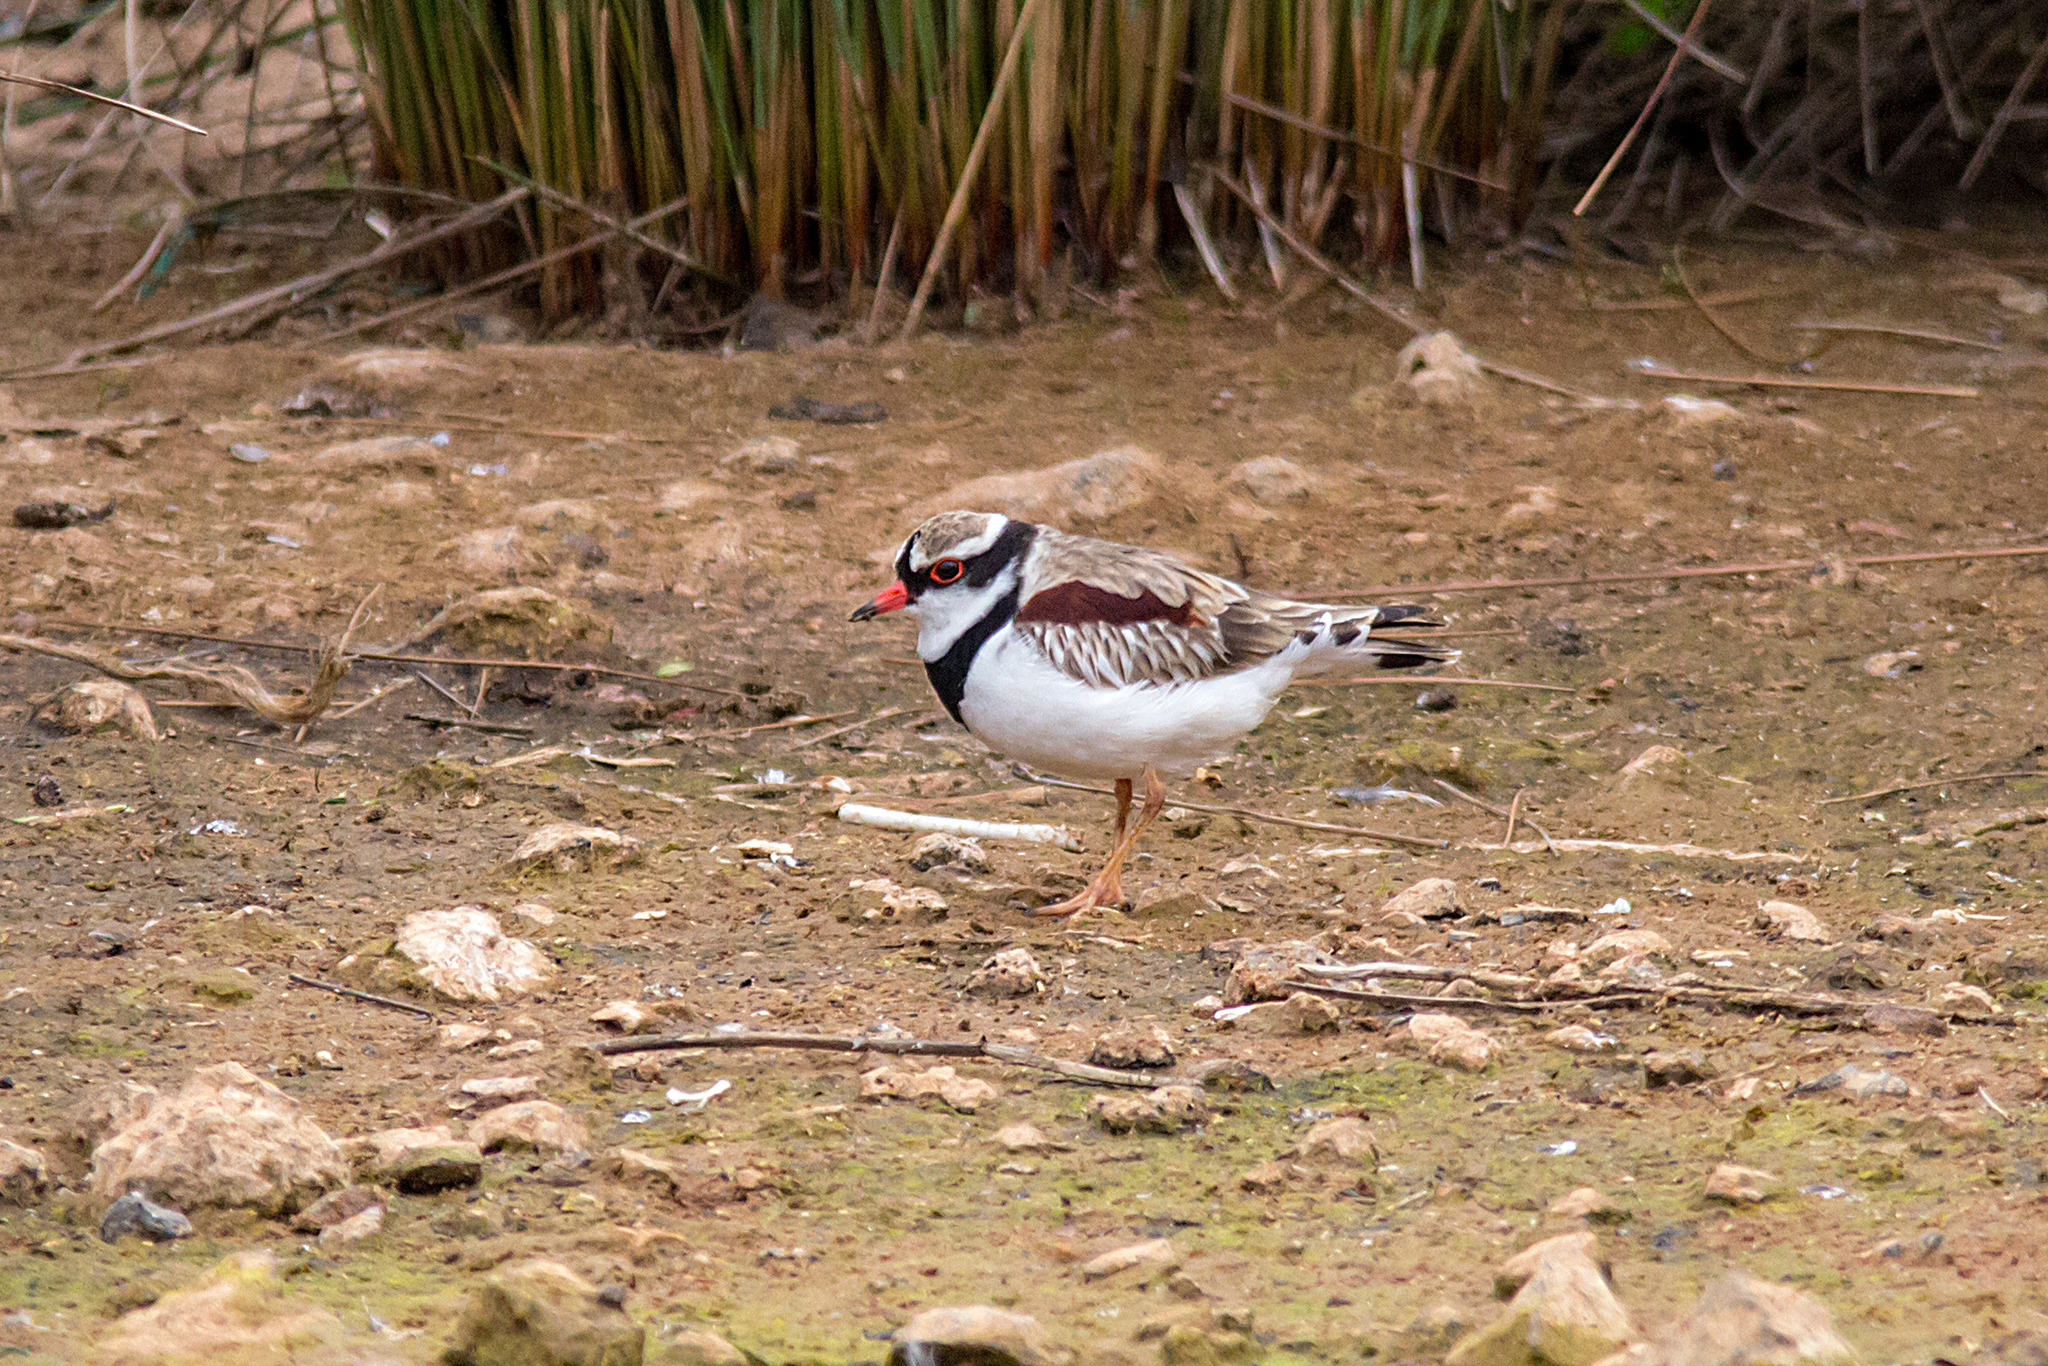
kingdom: Animalia
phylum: Chordata
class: Aves
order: Charadriiformes
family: Charadriidae
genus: Elseyornis
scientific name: Elseyornis melanops
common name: Black-fronted dotterel
